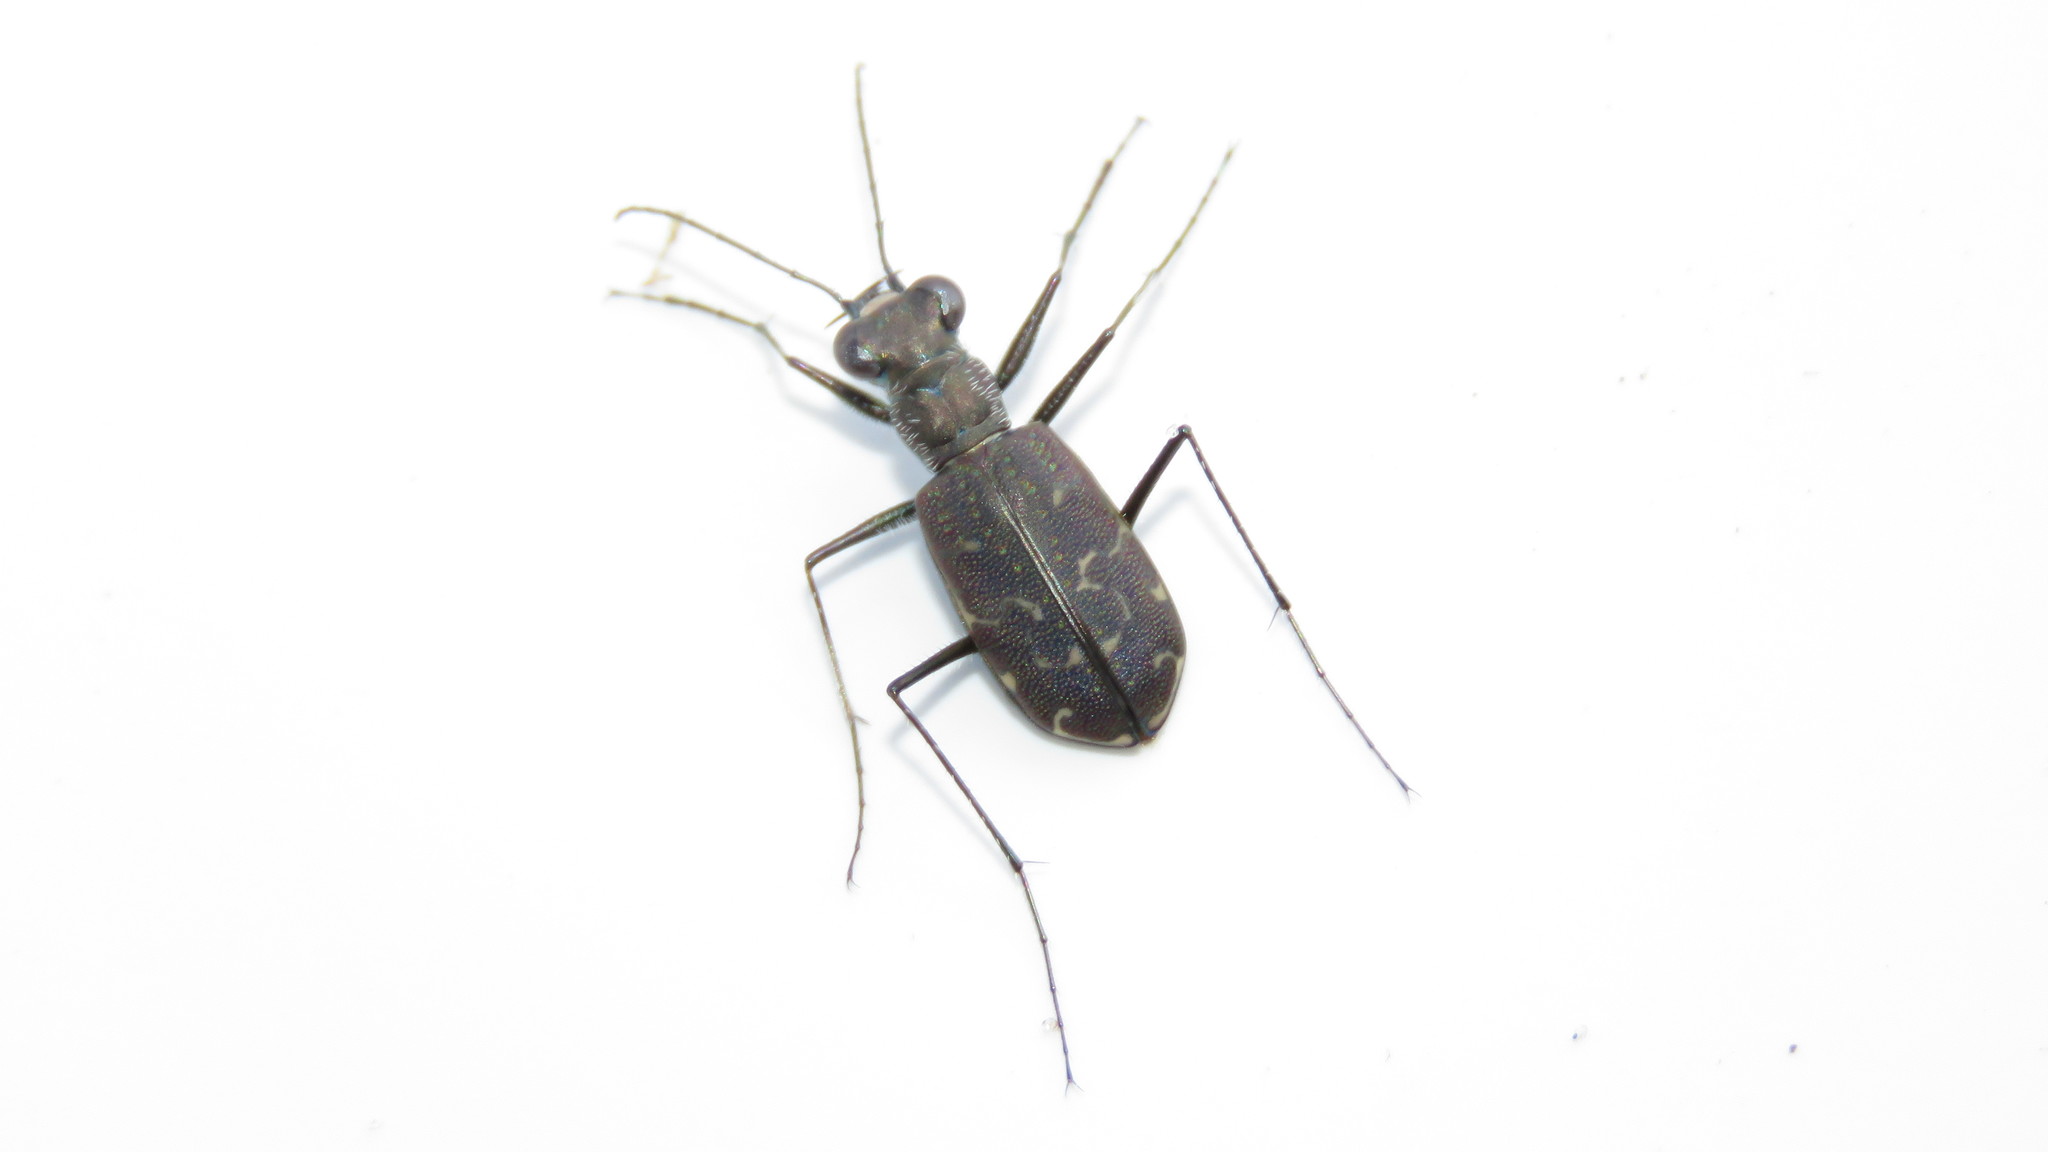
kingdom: Animalia
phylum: Arthropoda
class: Insecta
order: Coleoptera
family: Carabidae
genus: Cicindela
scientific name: Cicindela trifasciata
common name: Mudflat tiger beetle
